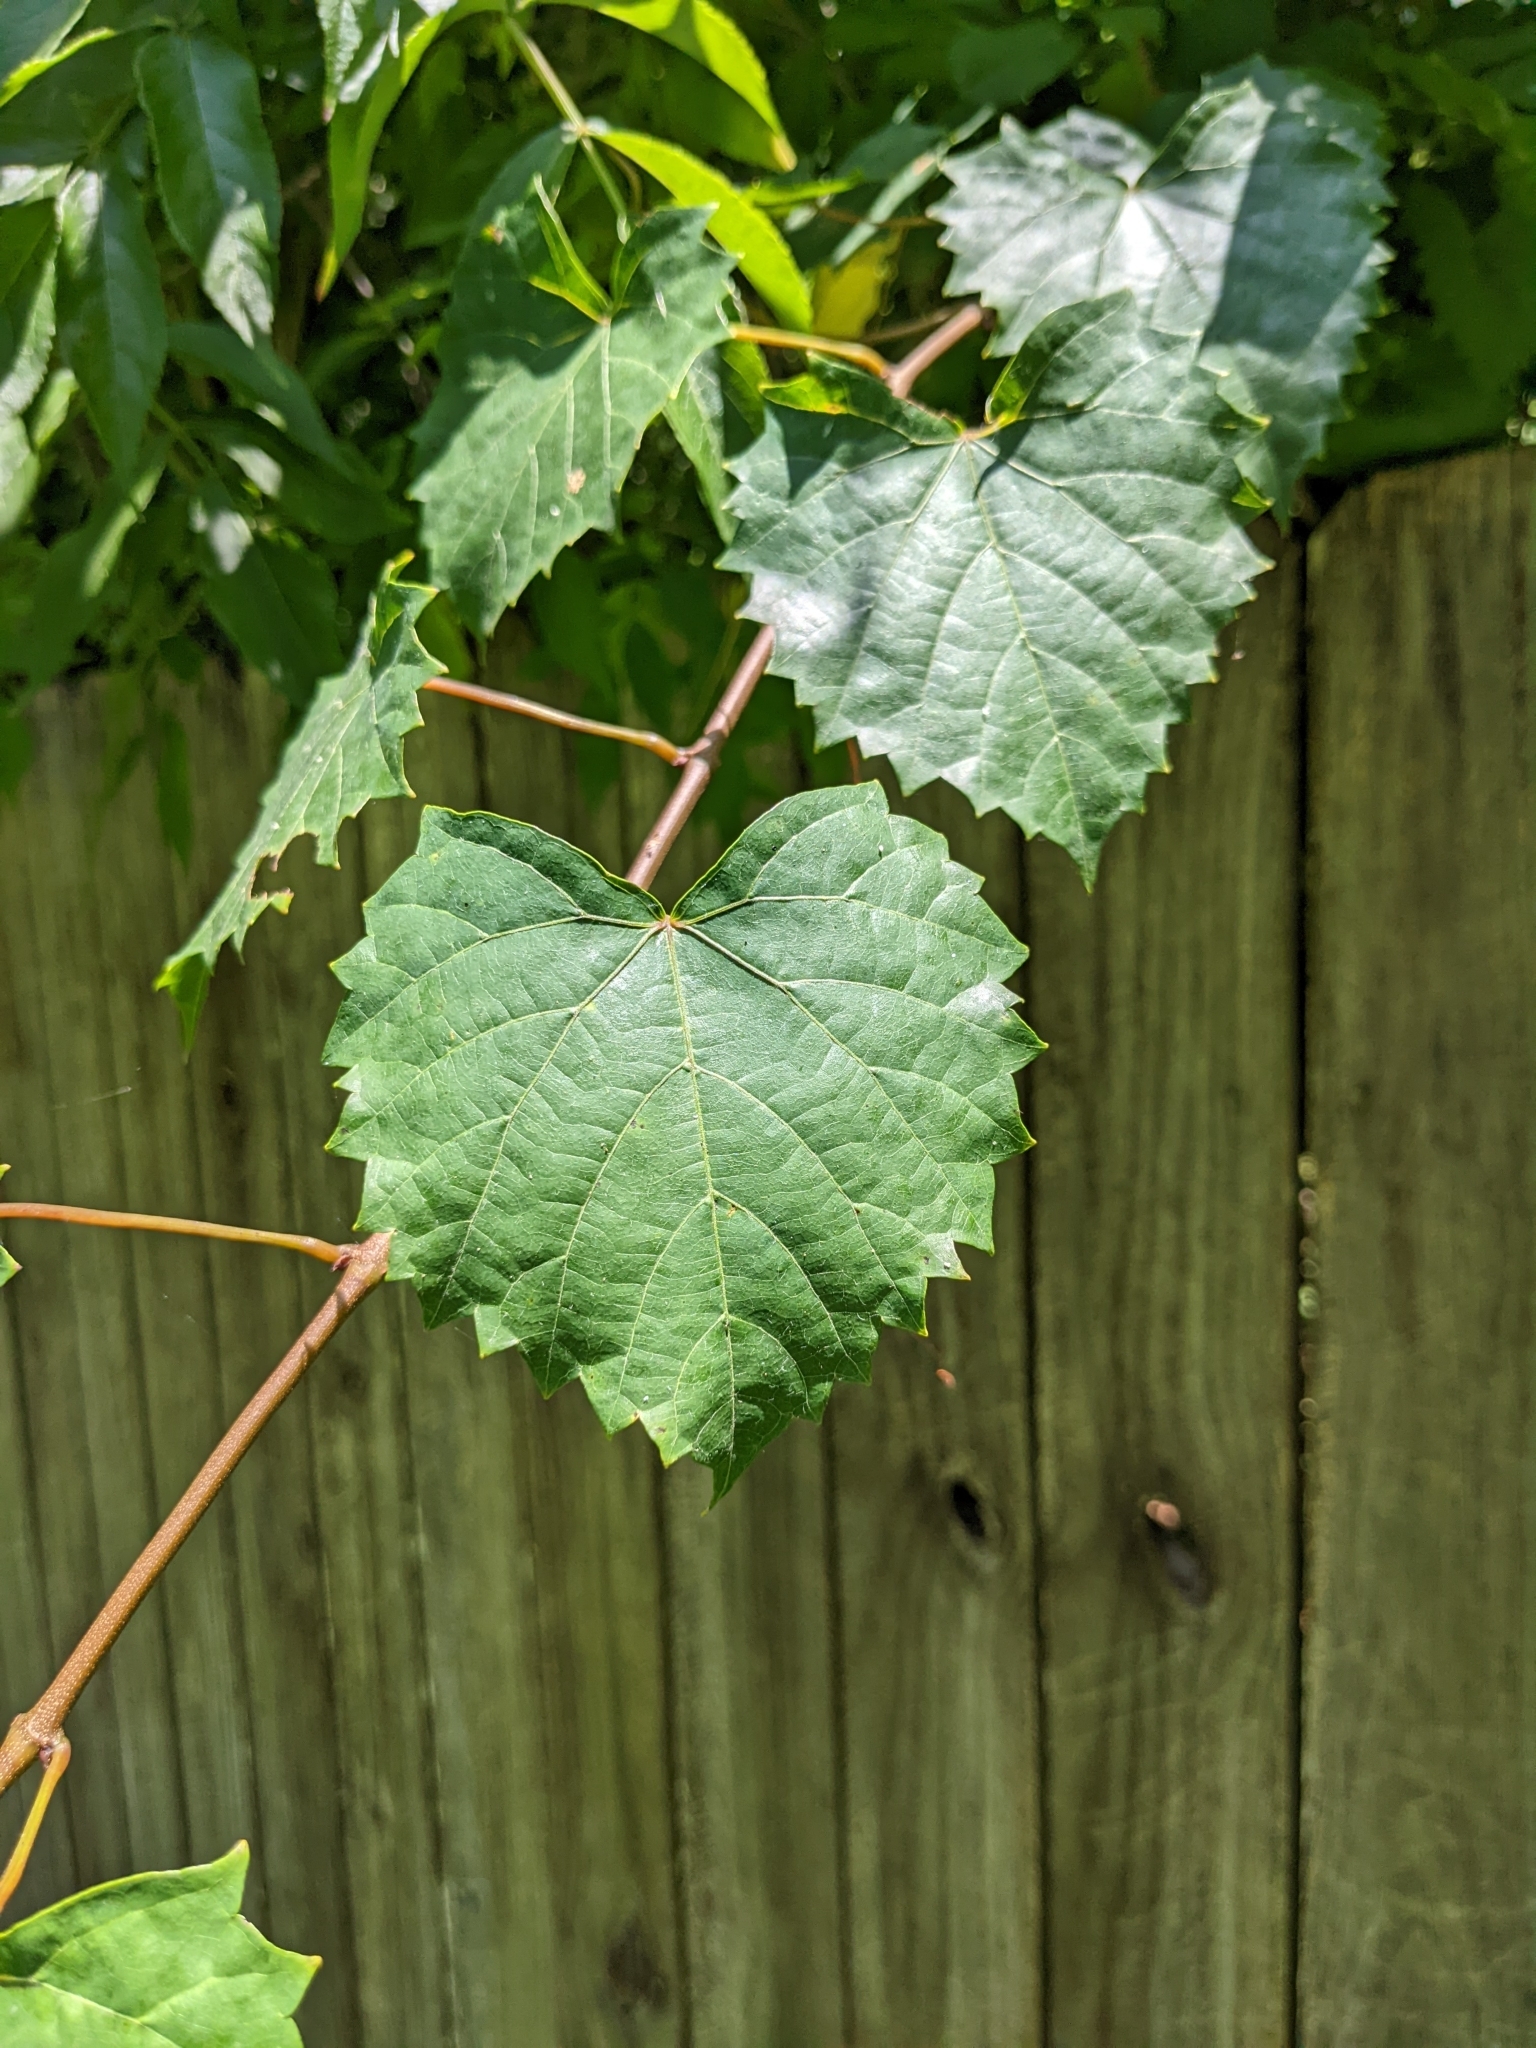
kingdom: Plantae
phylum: Tracheophyta
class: Magnoliopsida
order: Vitales
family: Vitaceae
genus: Vitis
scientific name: Vitis rotundifolia
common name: Muscadine grape
